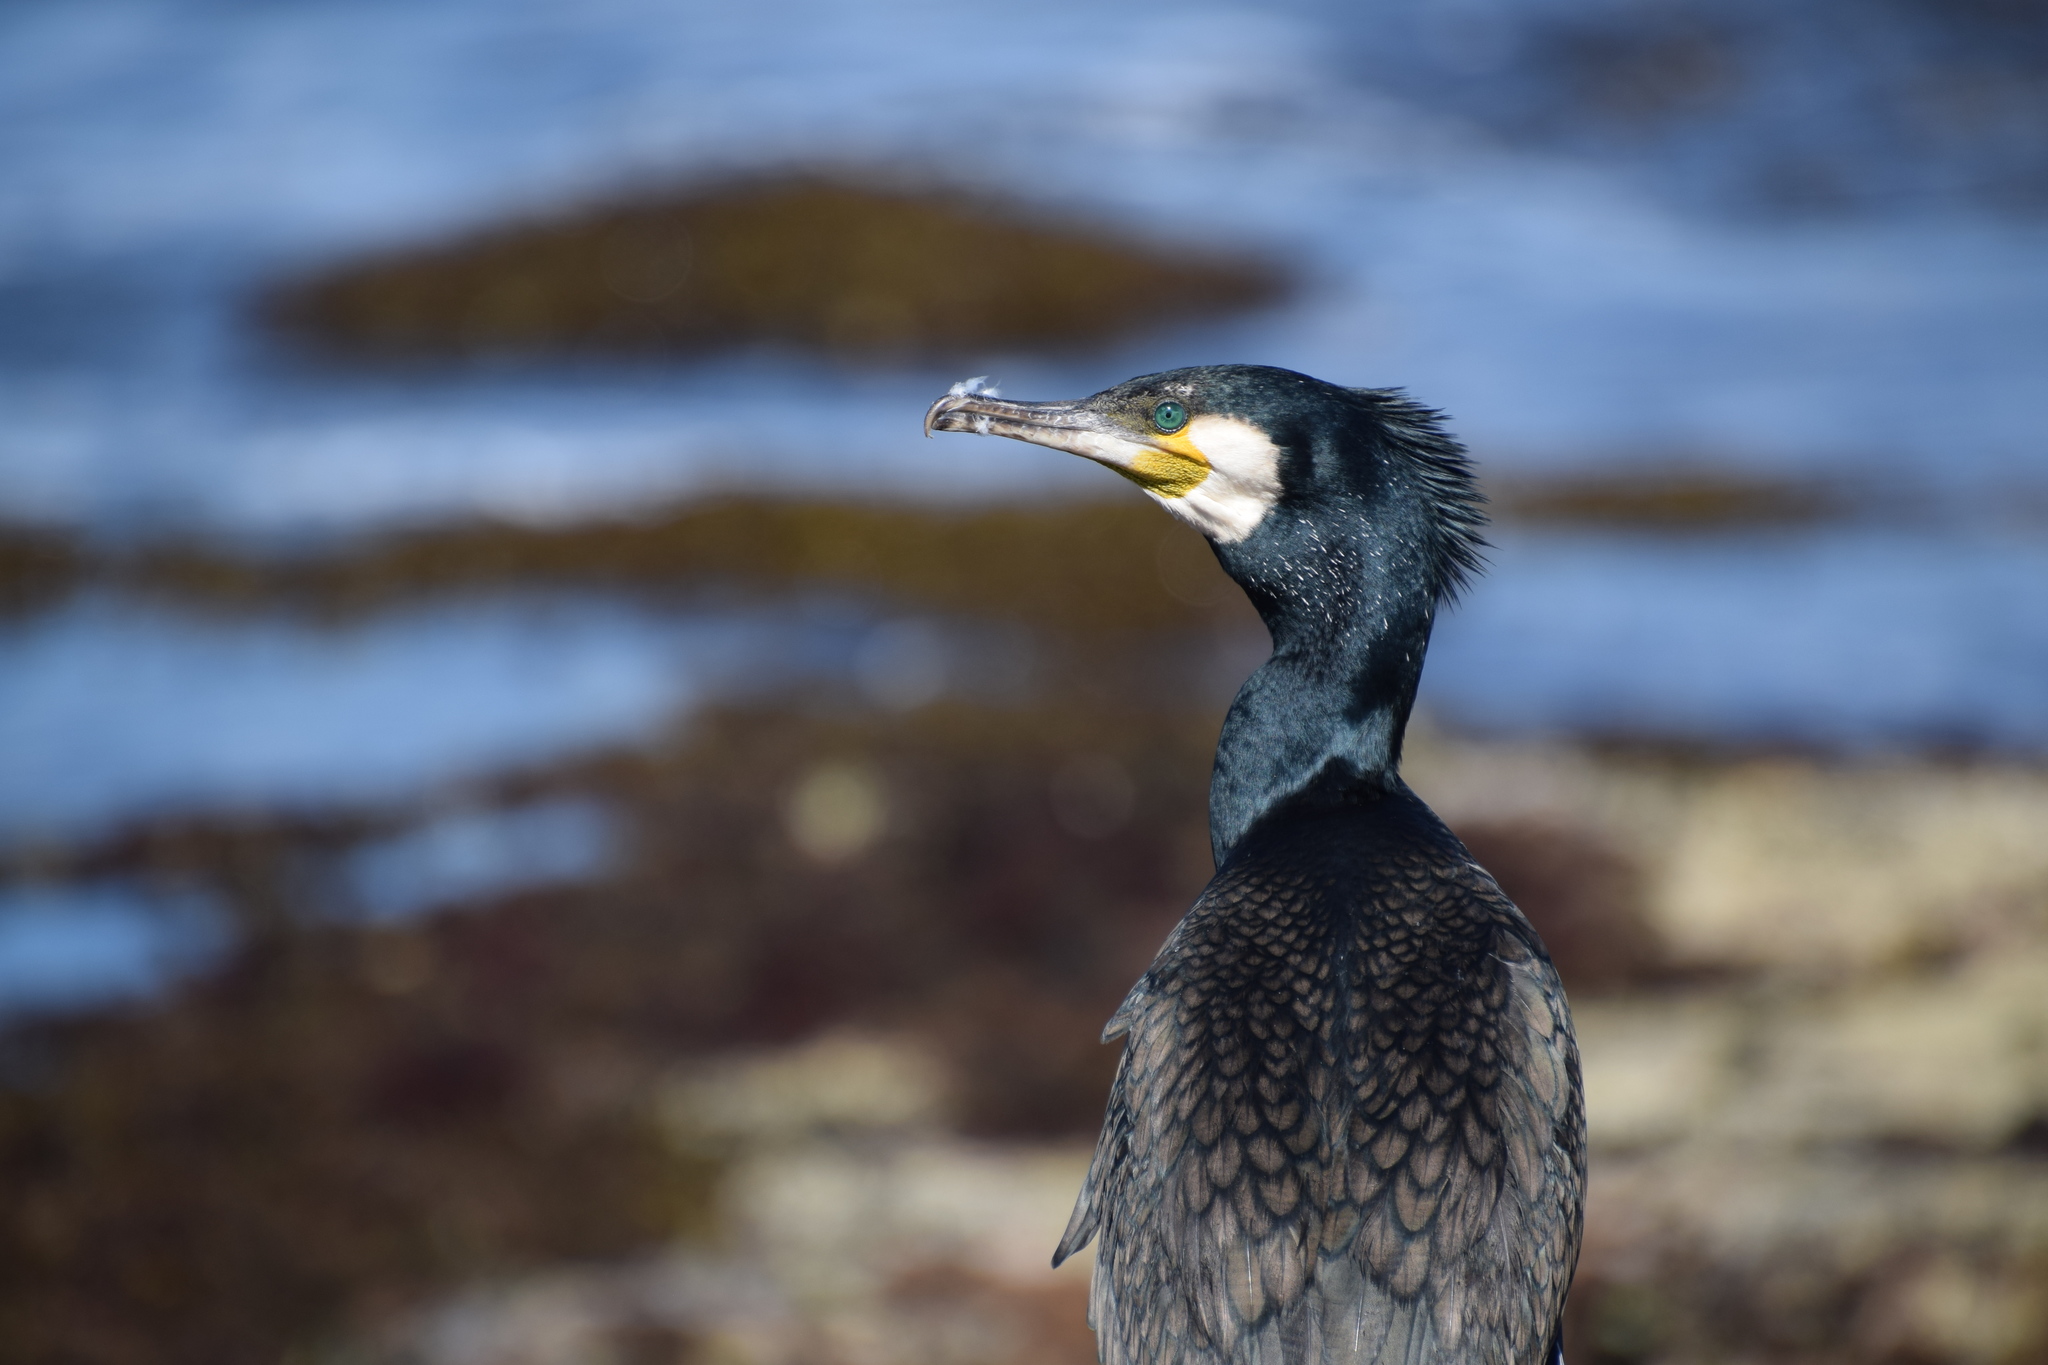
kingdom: Animalia
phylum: Chordata
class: Aves
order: Suliformes
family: Phalacrocoracidae
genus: Phalacrocorax
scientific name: Phalacrocorax carbo
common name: Great cormorant
